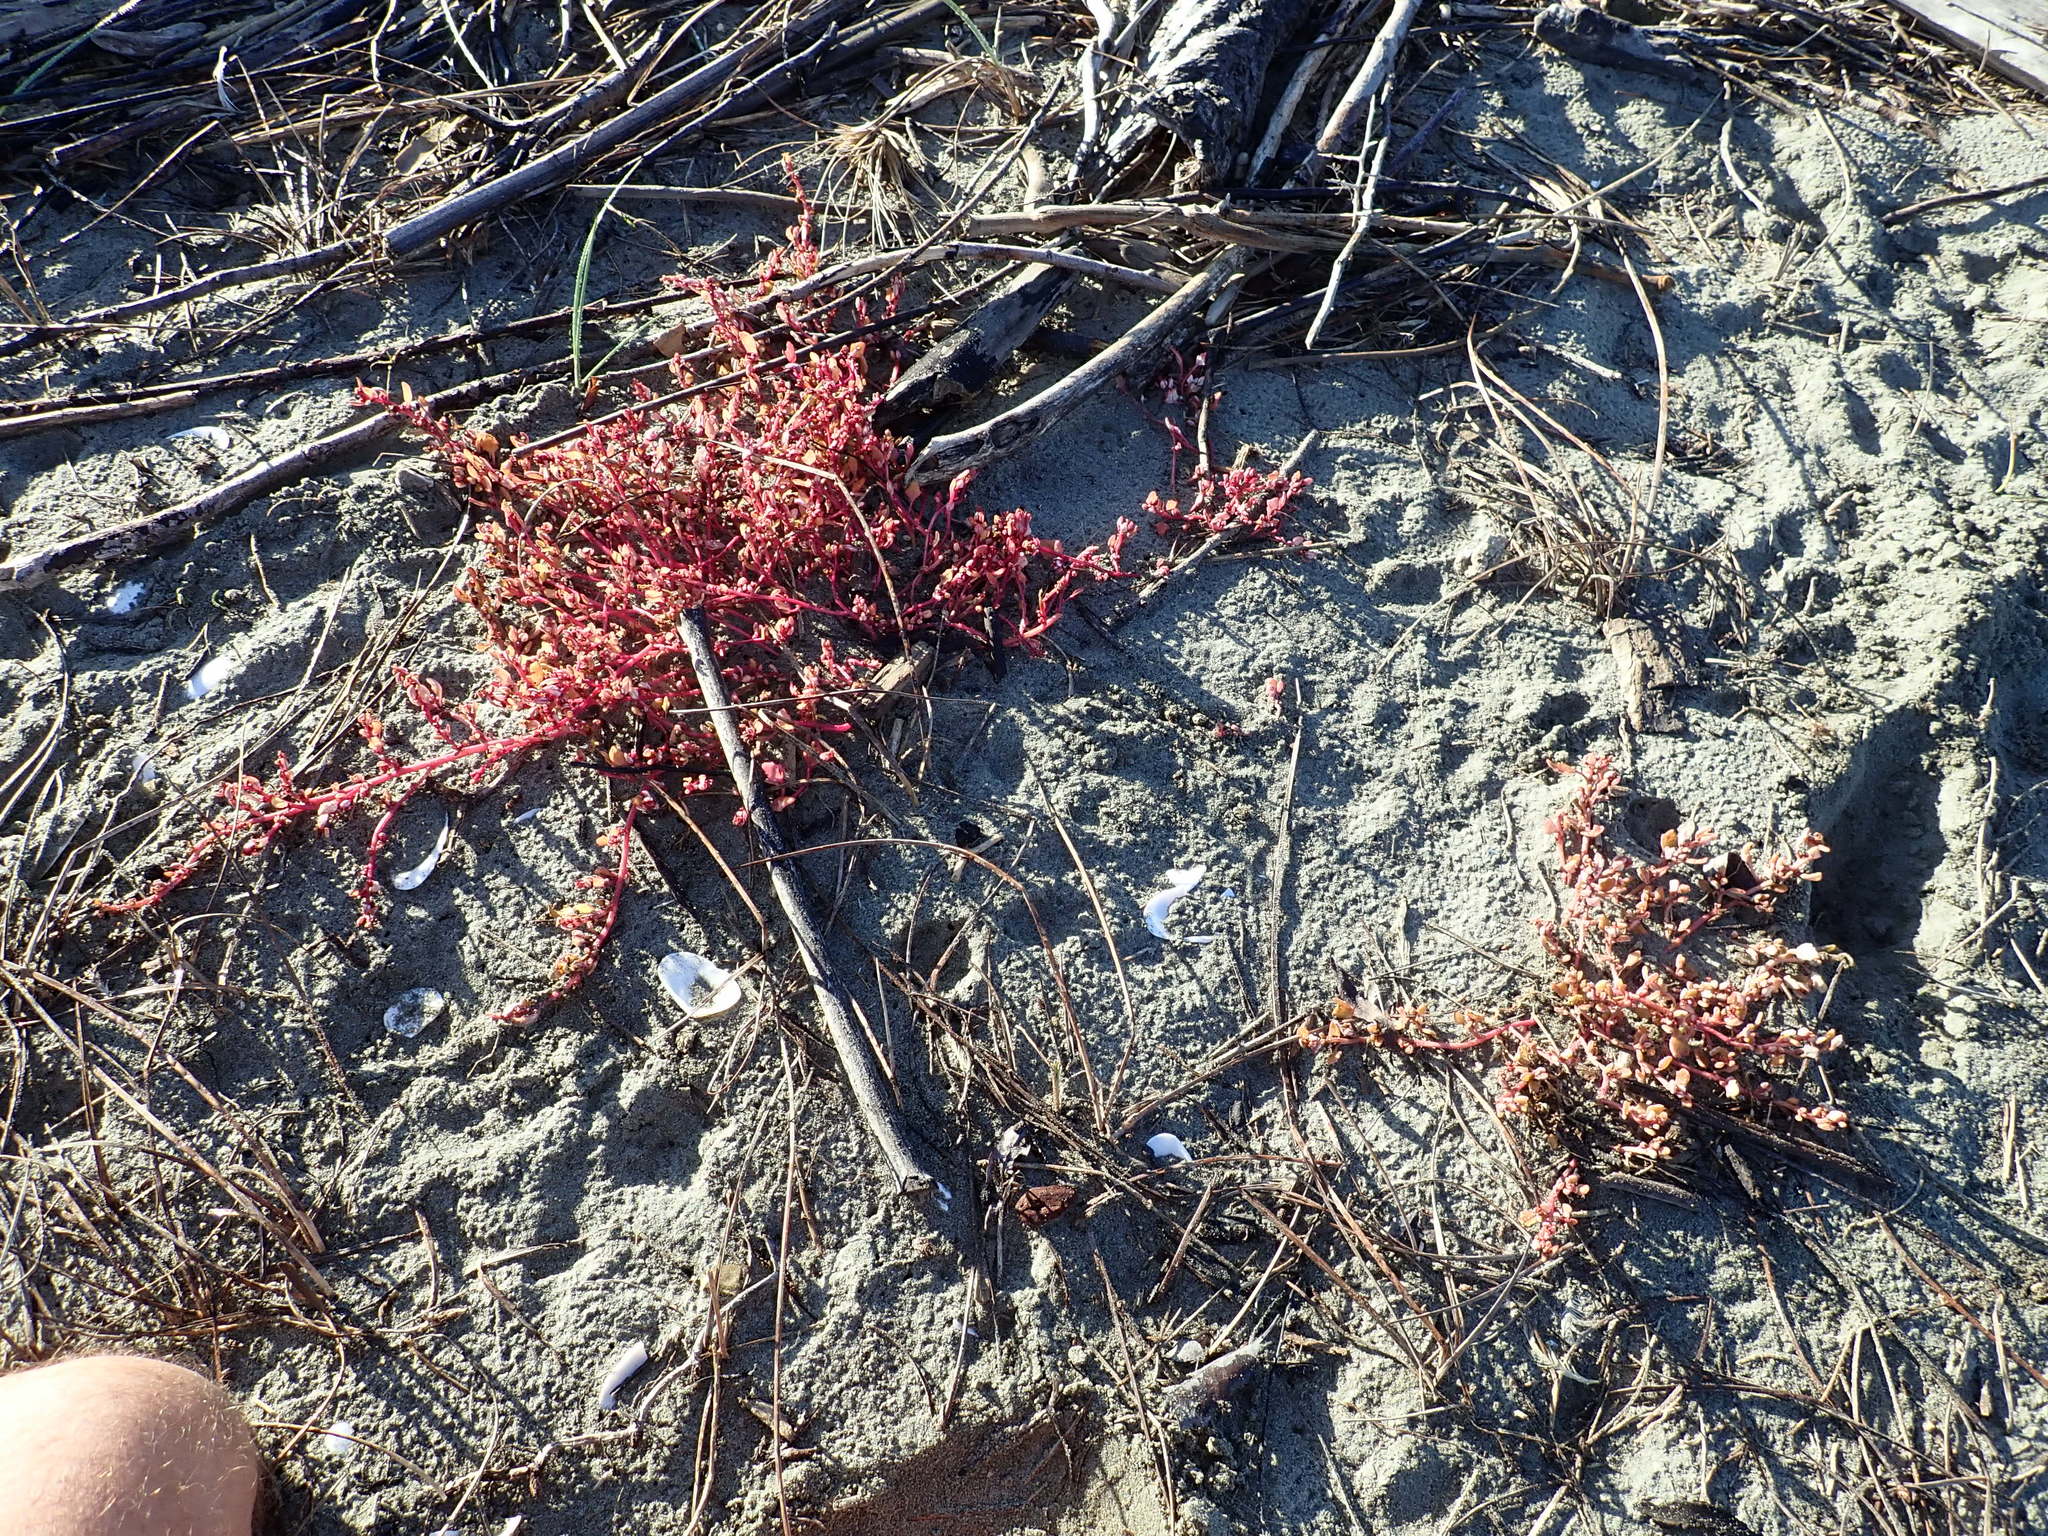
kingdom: Plantae
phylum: Tracheophyta
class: Magnoliopsida
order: Caryophyllales
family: Amaranthaceae
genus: Oxybasis
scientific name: Oxybasis ambigua
